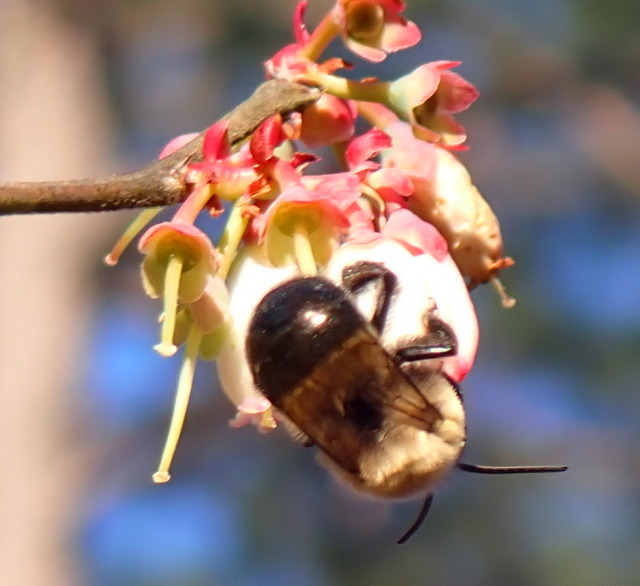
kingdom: Animalia
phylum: Arthropoda
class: Insecta
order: Hymenoptera
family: Apidae
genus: Habropoda
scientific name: Habropoda laboriosa
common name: Southeastern blueberry bee
